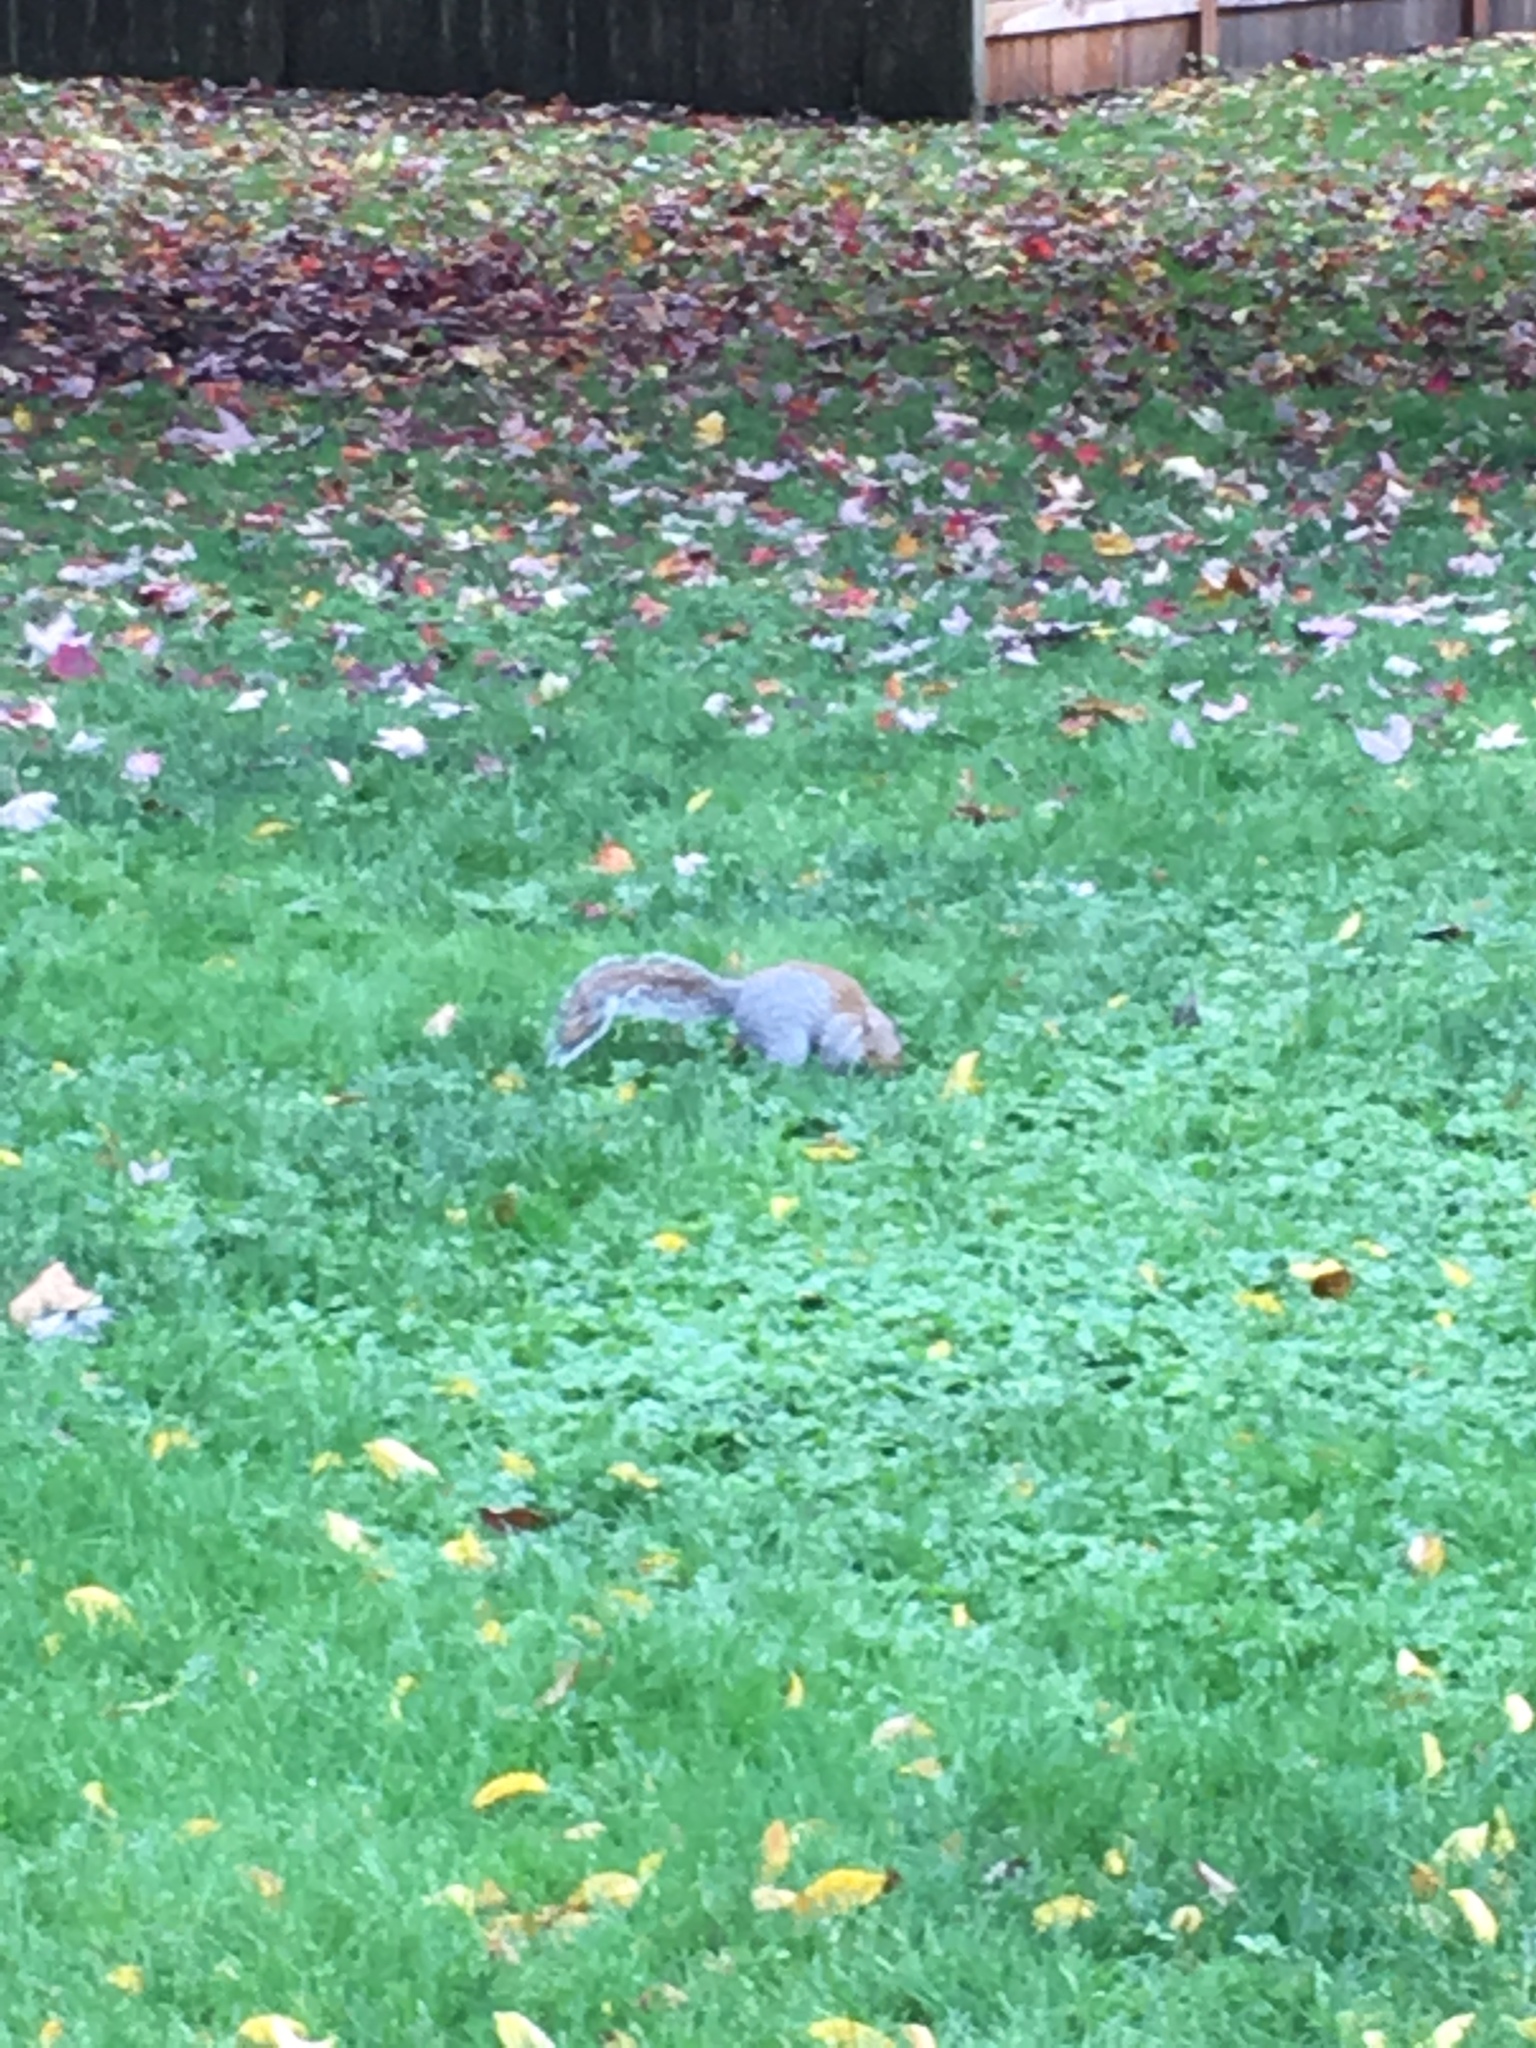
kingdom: Animalia
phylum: Chordata
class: Mammalia
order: Rodentia
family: Sciuridae
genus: Sciurus
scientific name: Sciurus carolinensis
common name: Eastern gray squirrel
